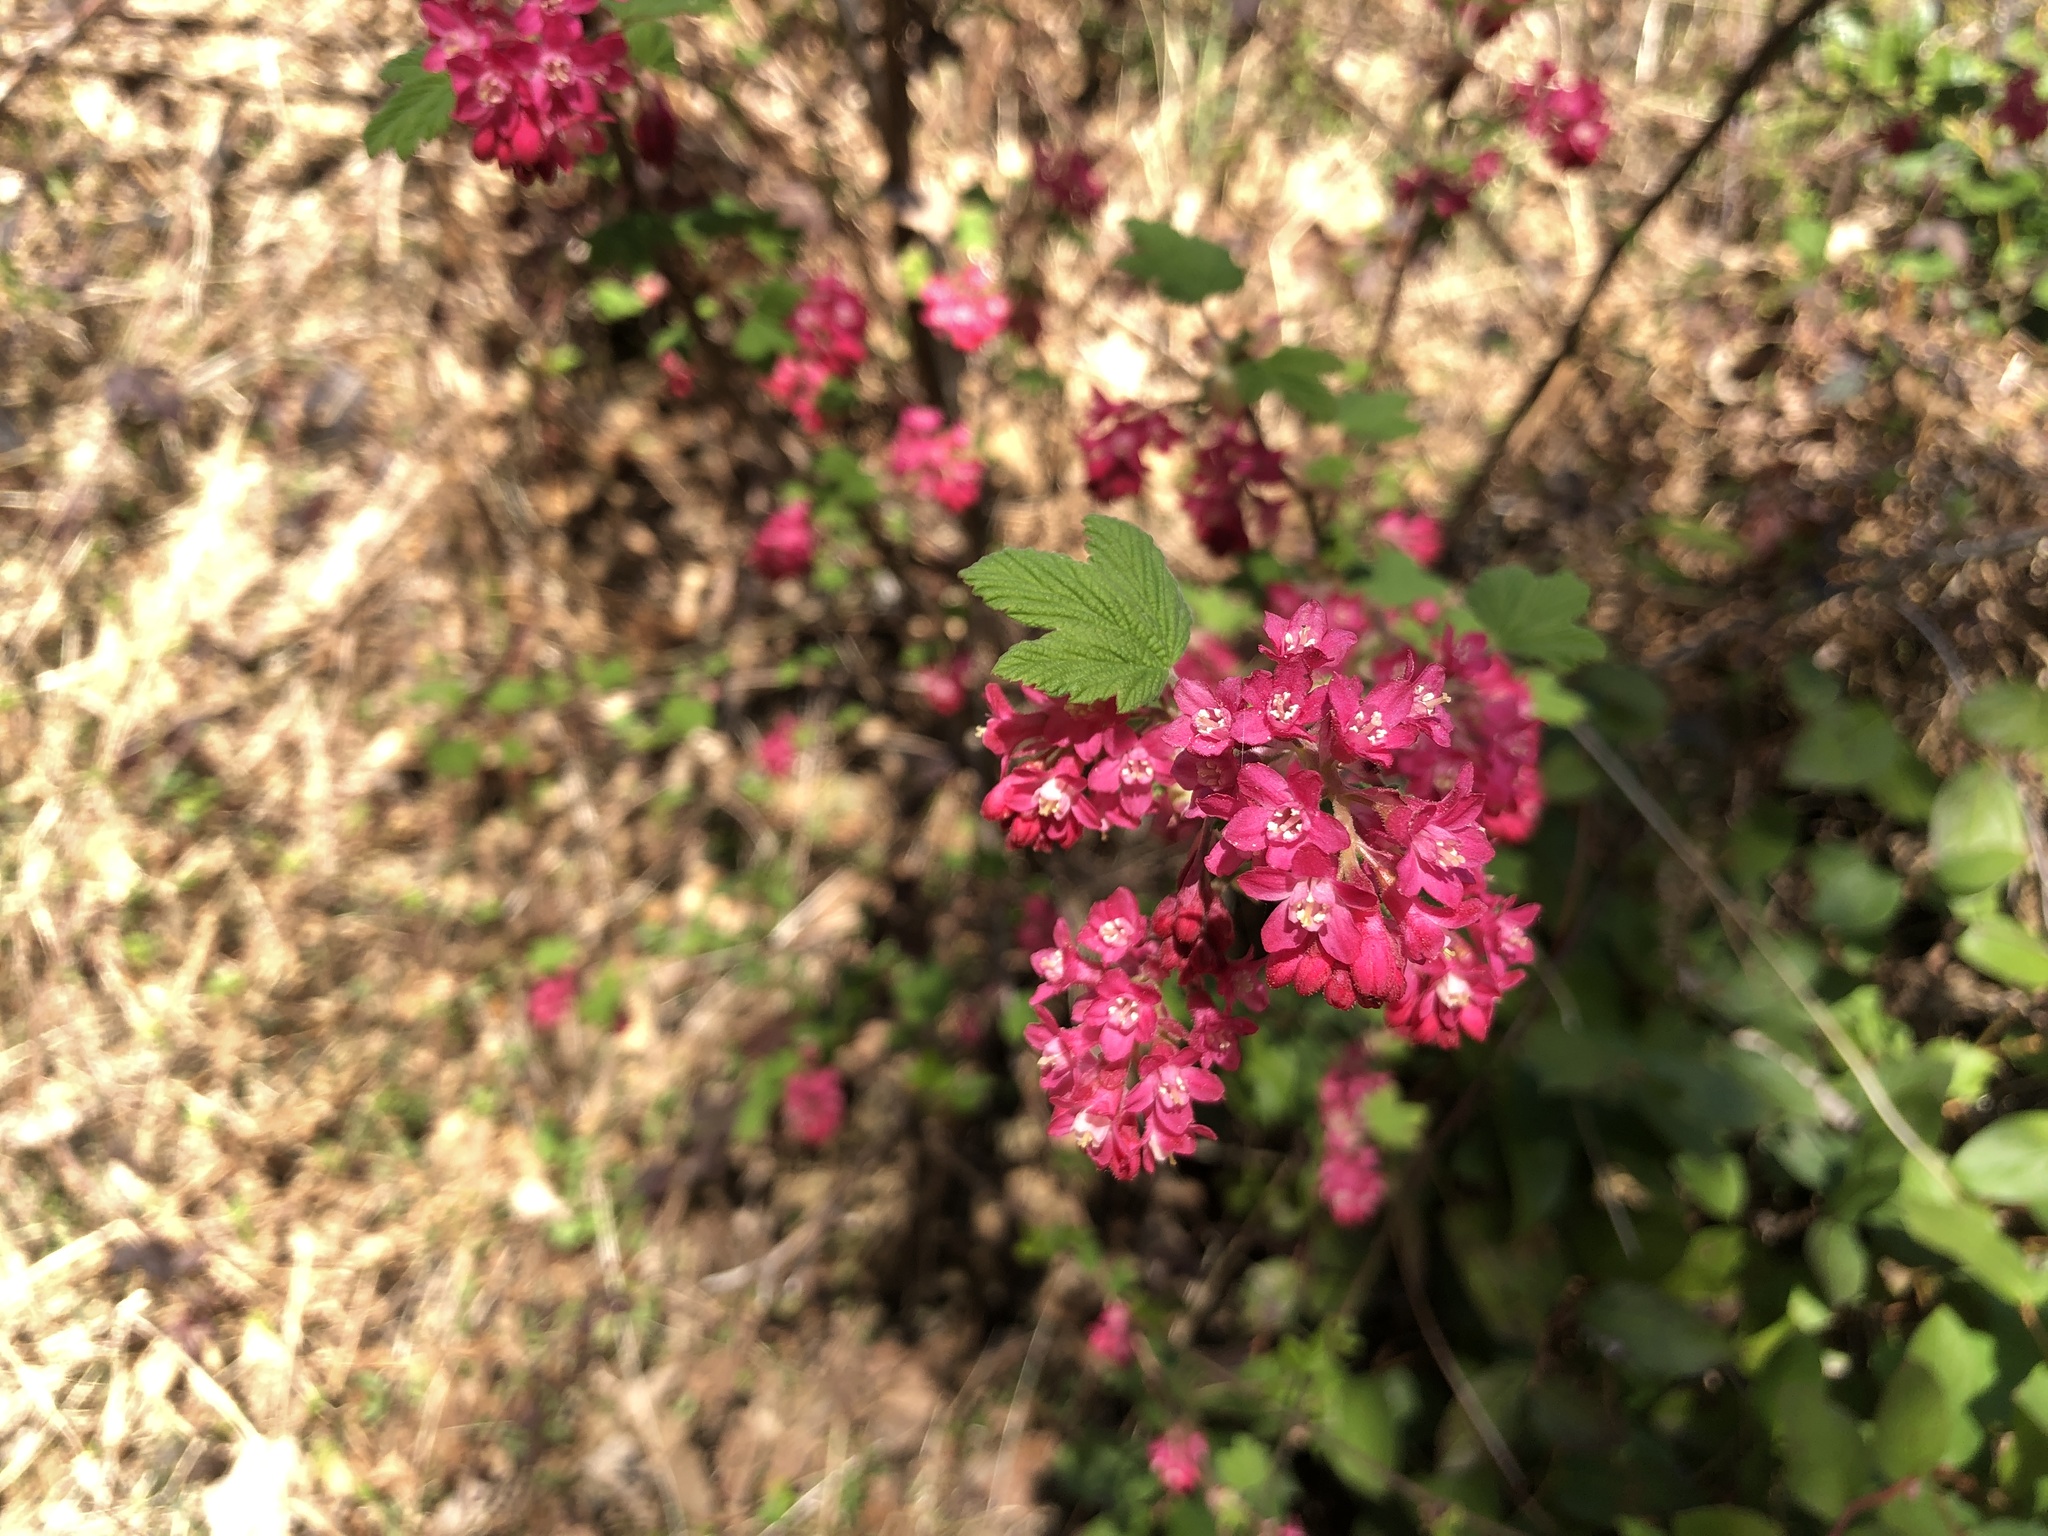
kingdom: Plantae
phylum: Tracheophyta
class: Magnoliopsida
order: Saxifragales
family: Grossulariaceae
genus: Ribes
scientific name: Ribes sanguineum
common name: Flowering currant
